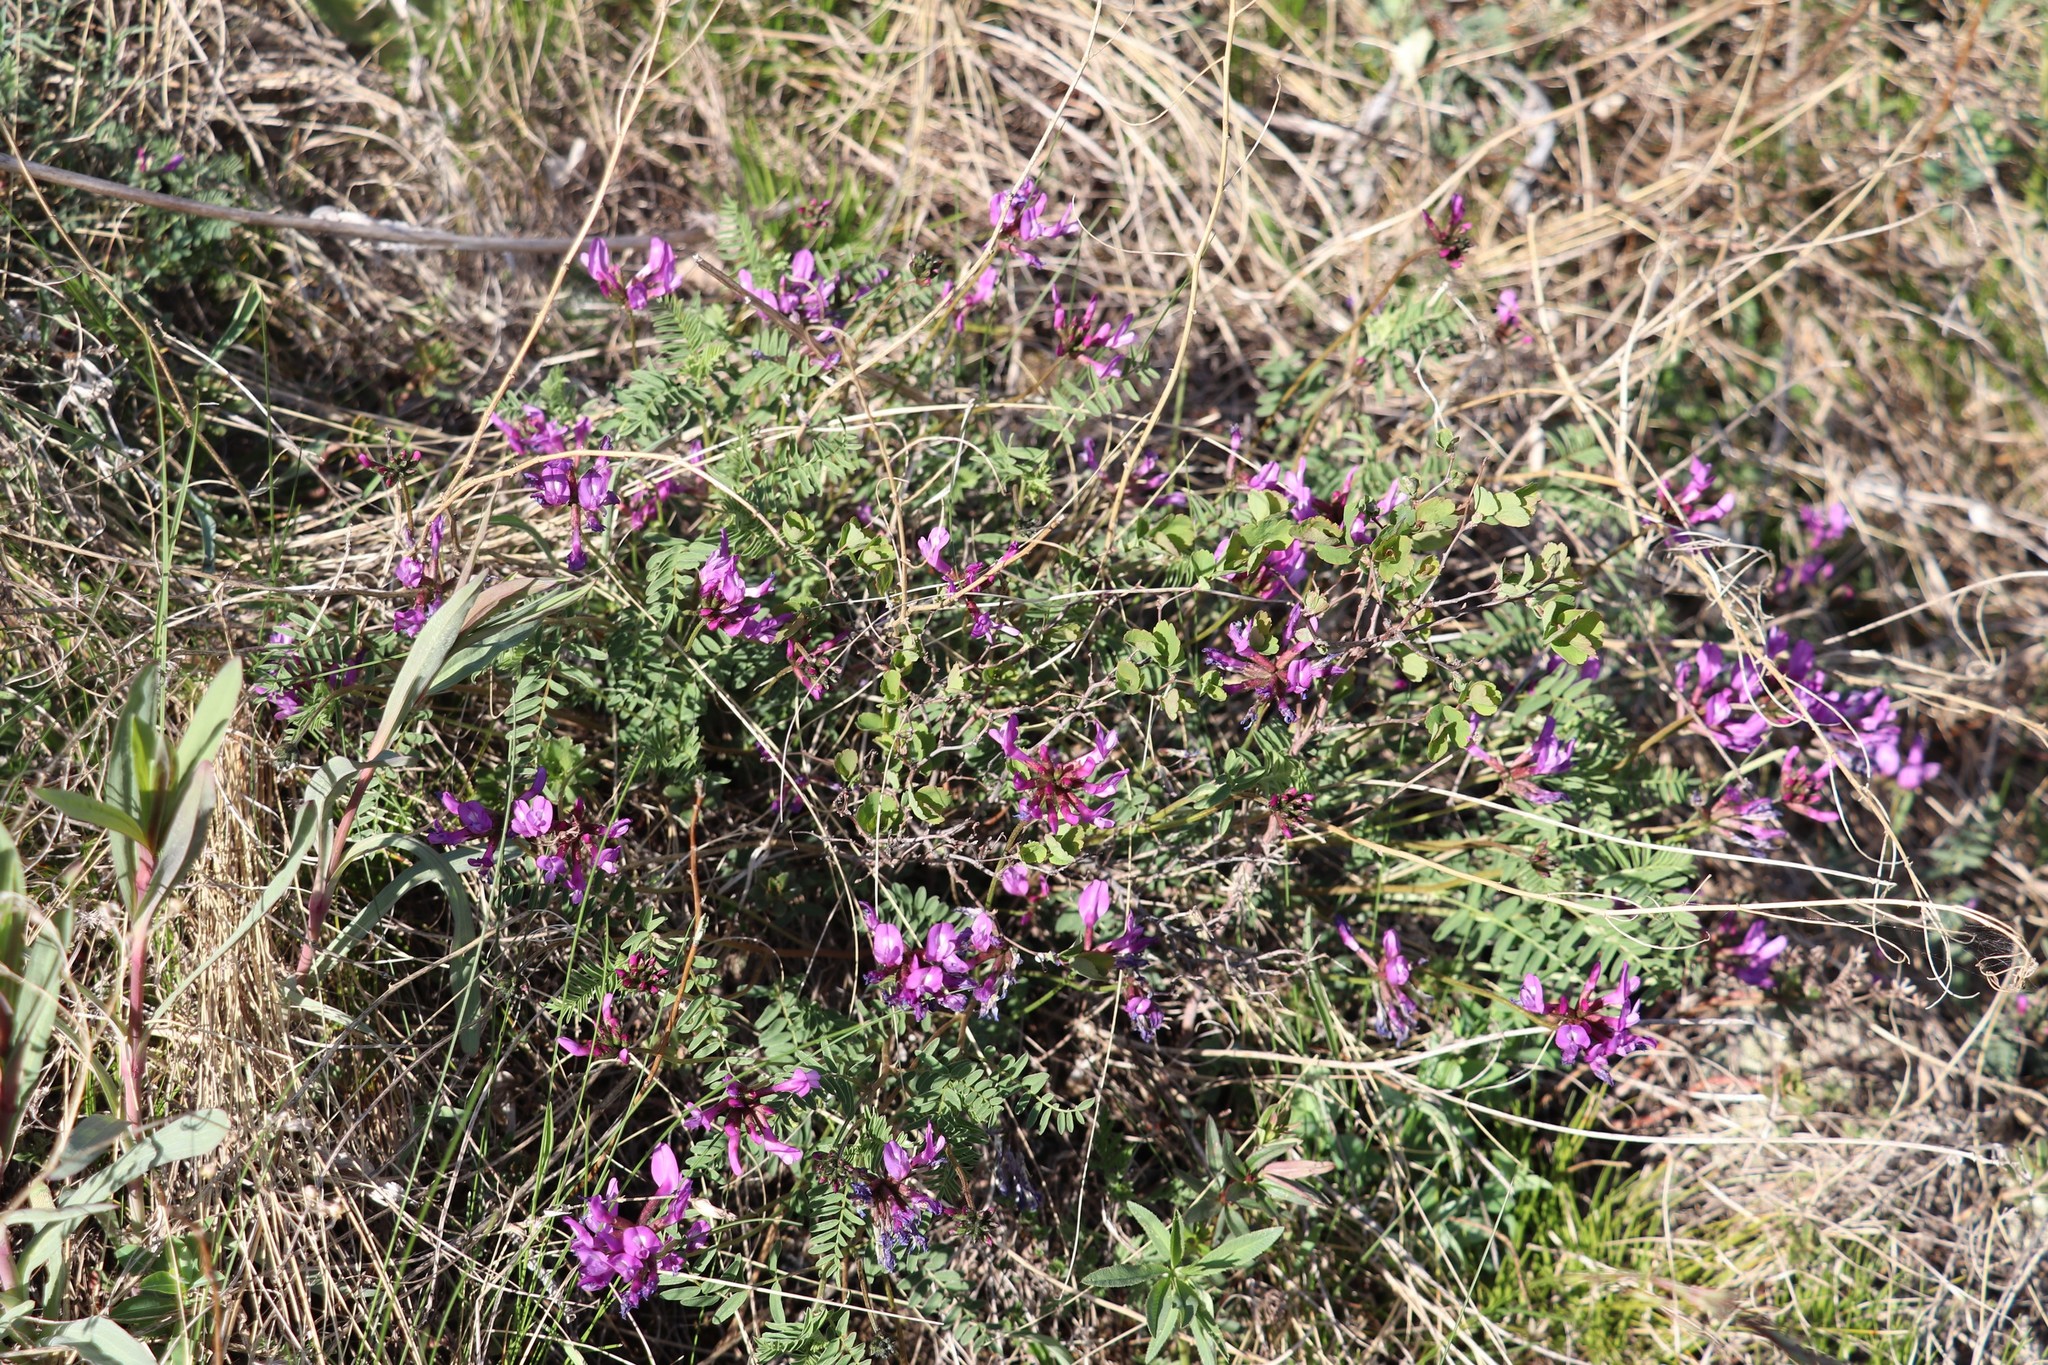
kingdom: Plantae
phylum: Tracheophyta
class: Magnoliopsida
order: Fabales
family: Fabaceae
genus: Astragalus
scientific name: Astragalus ceratoides
